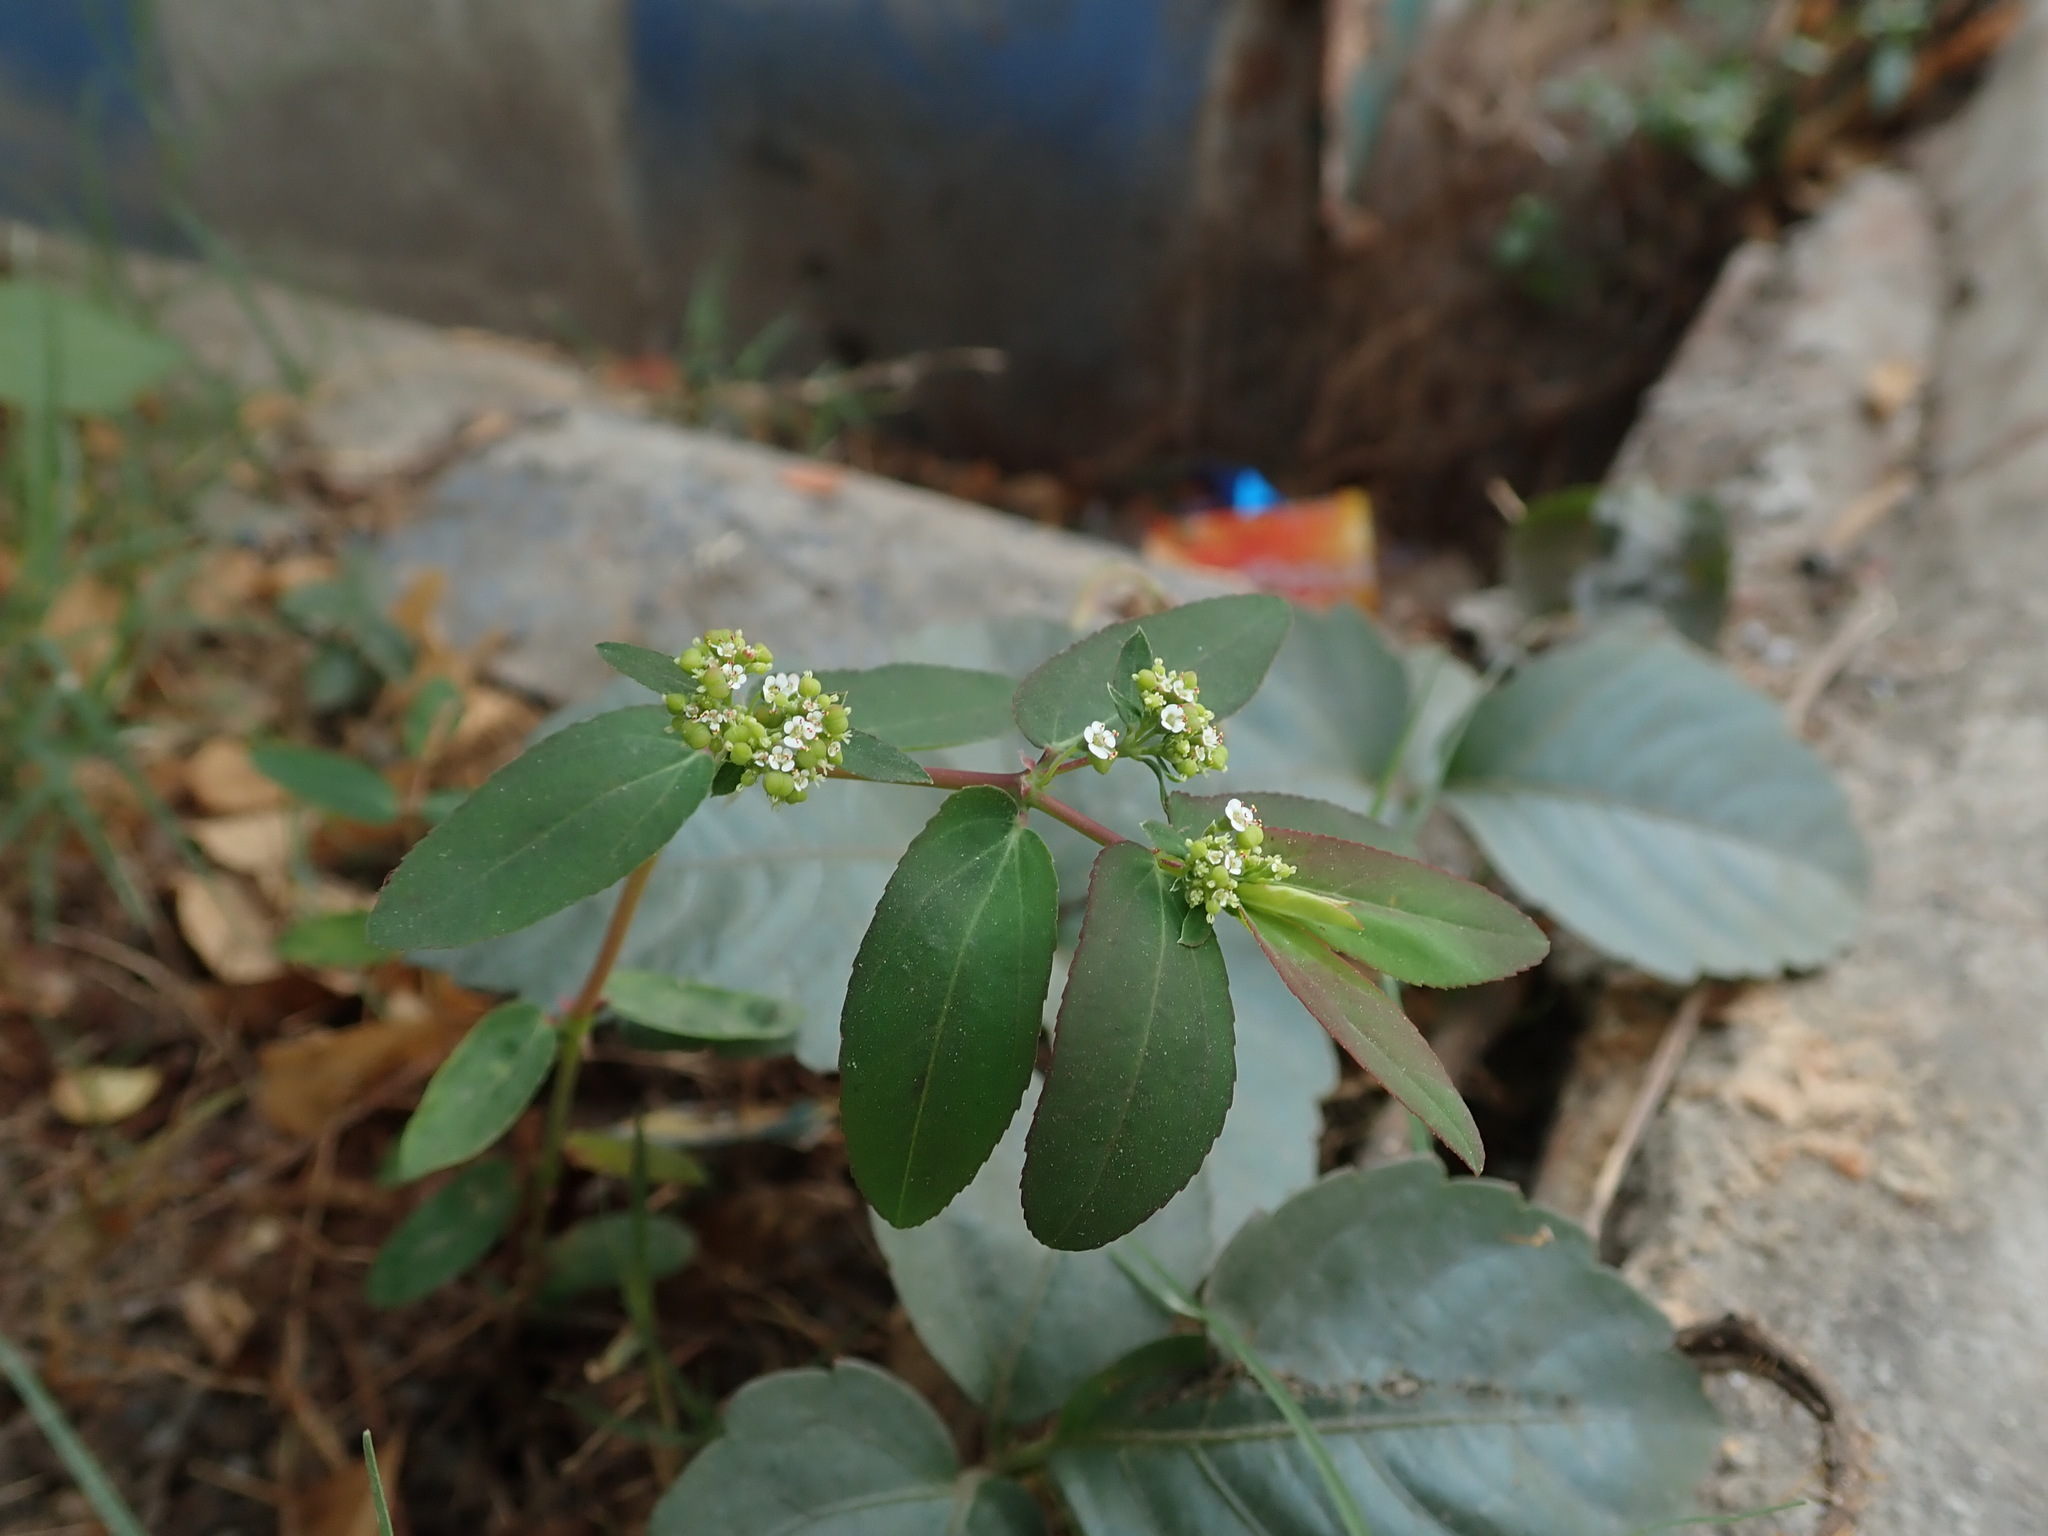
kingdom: Plantae
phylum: Tracheophyta
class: Magnoliopsida
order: Malpighiales
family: Euphorbiaceae
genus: Euphorbia
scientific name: Euphorbia hypericifolia
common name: Graceful sandmat
